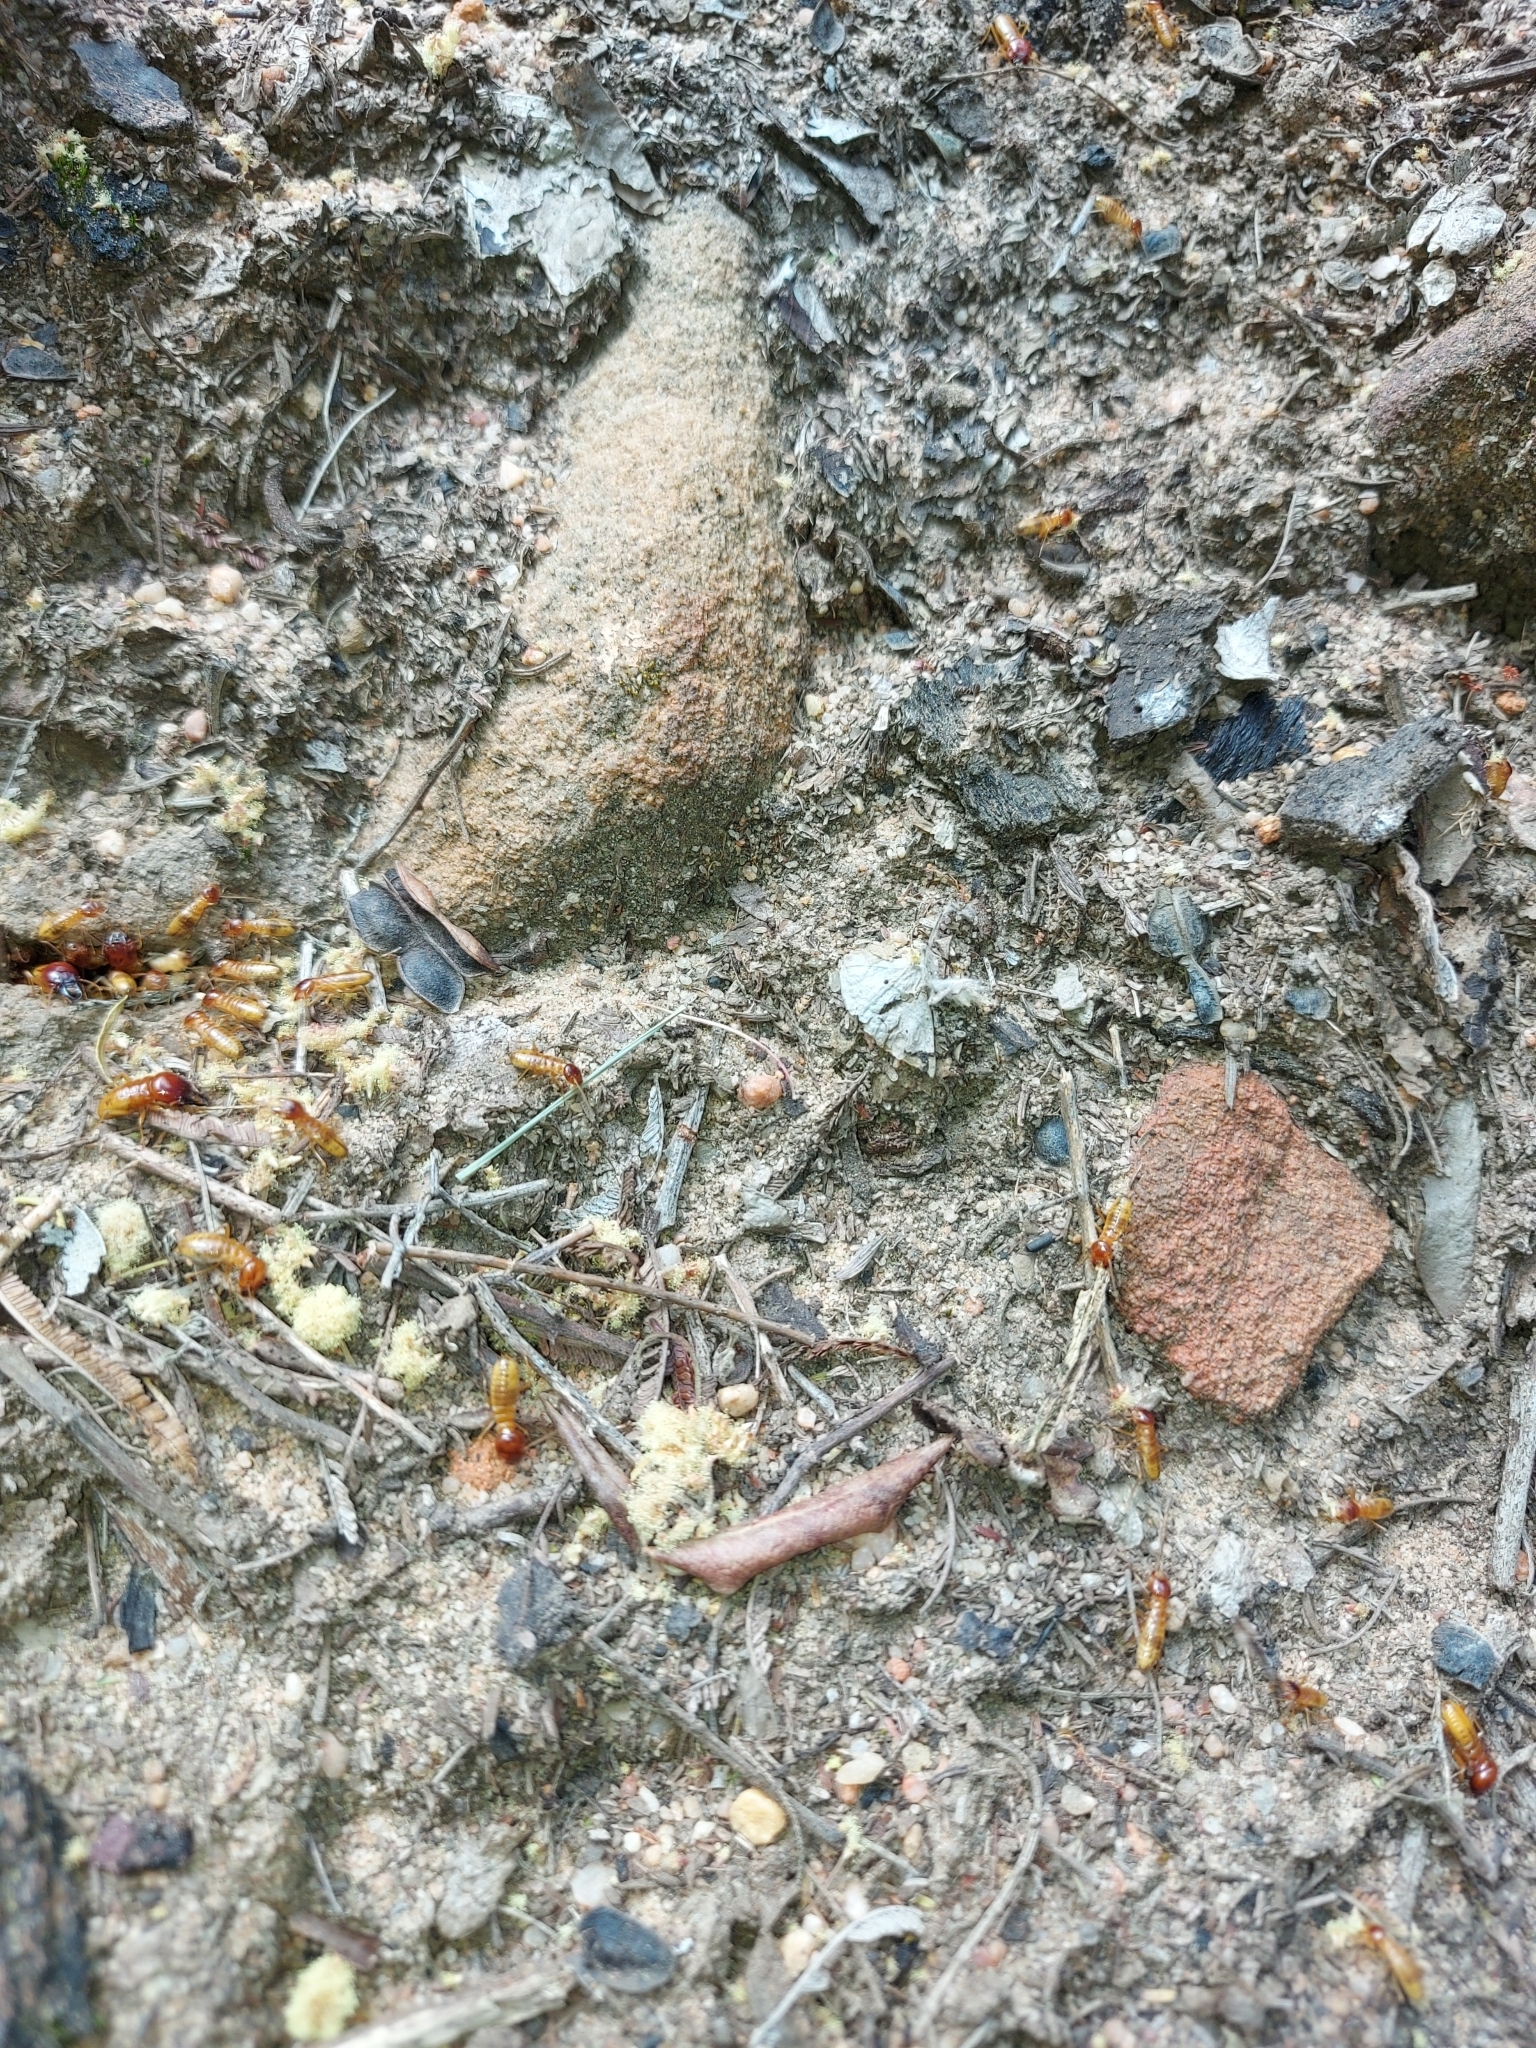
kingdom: Animalia
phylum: Arthropoda
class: Insecta
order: Blattodea
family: Hodotermitidae
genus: Microhodotermes
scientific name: Microhodotermes viator
